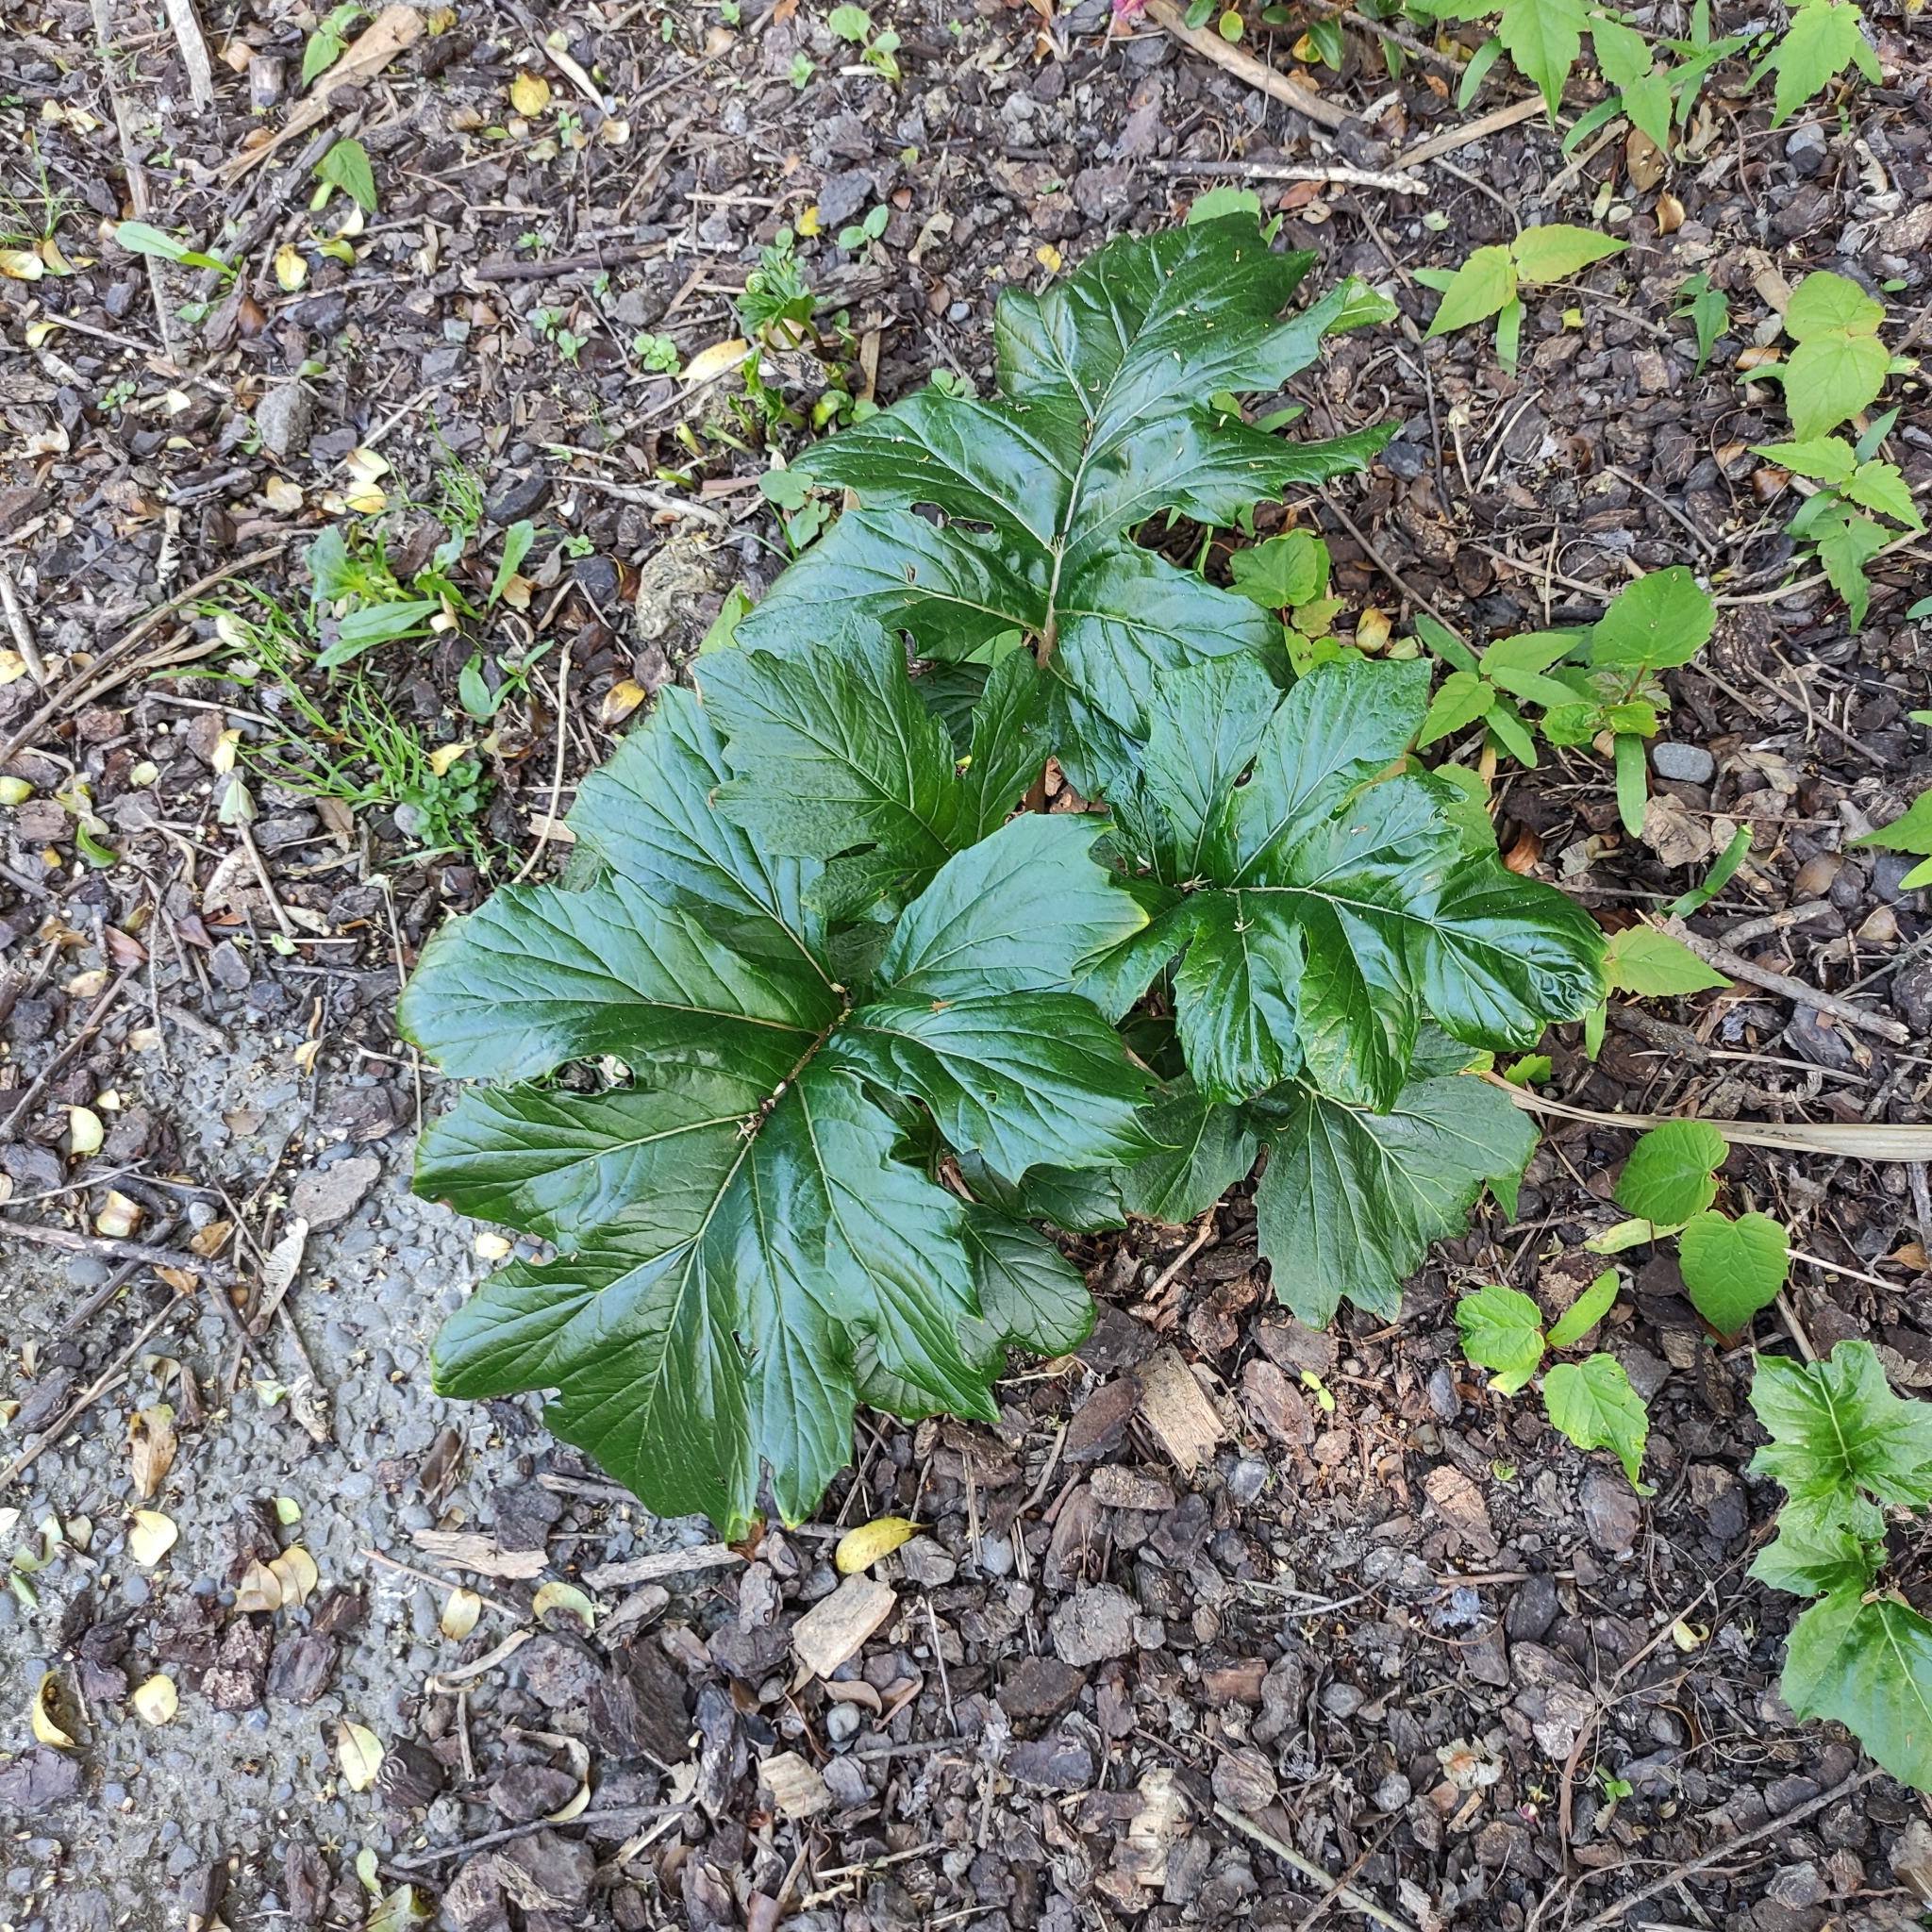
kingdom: Plantae
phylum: Tracheophyta
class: Magnoliopsida
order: Lamiales
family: Acanthaceae
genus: Acanthus
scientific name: Acanthus mollis
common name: Bear's-breech
